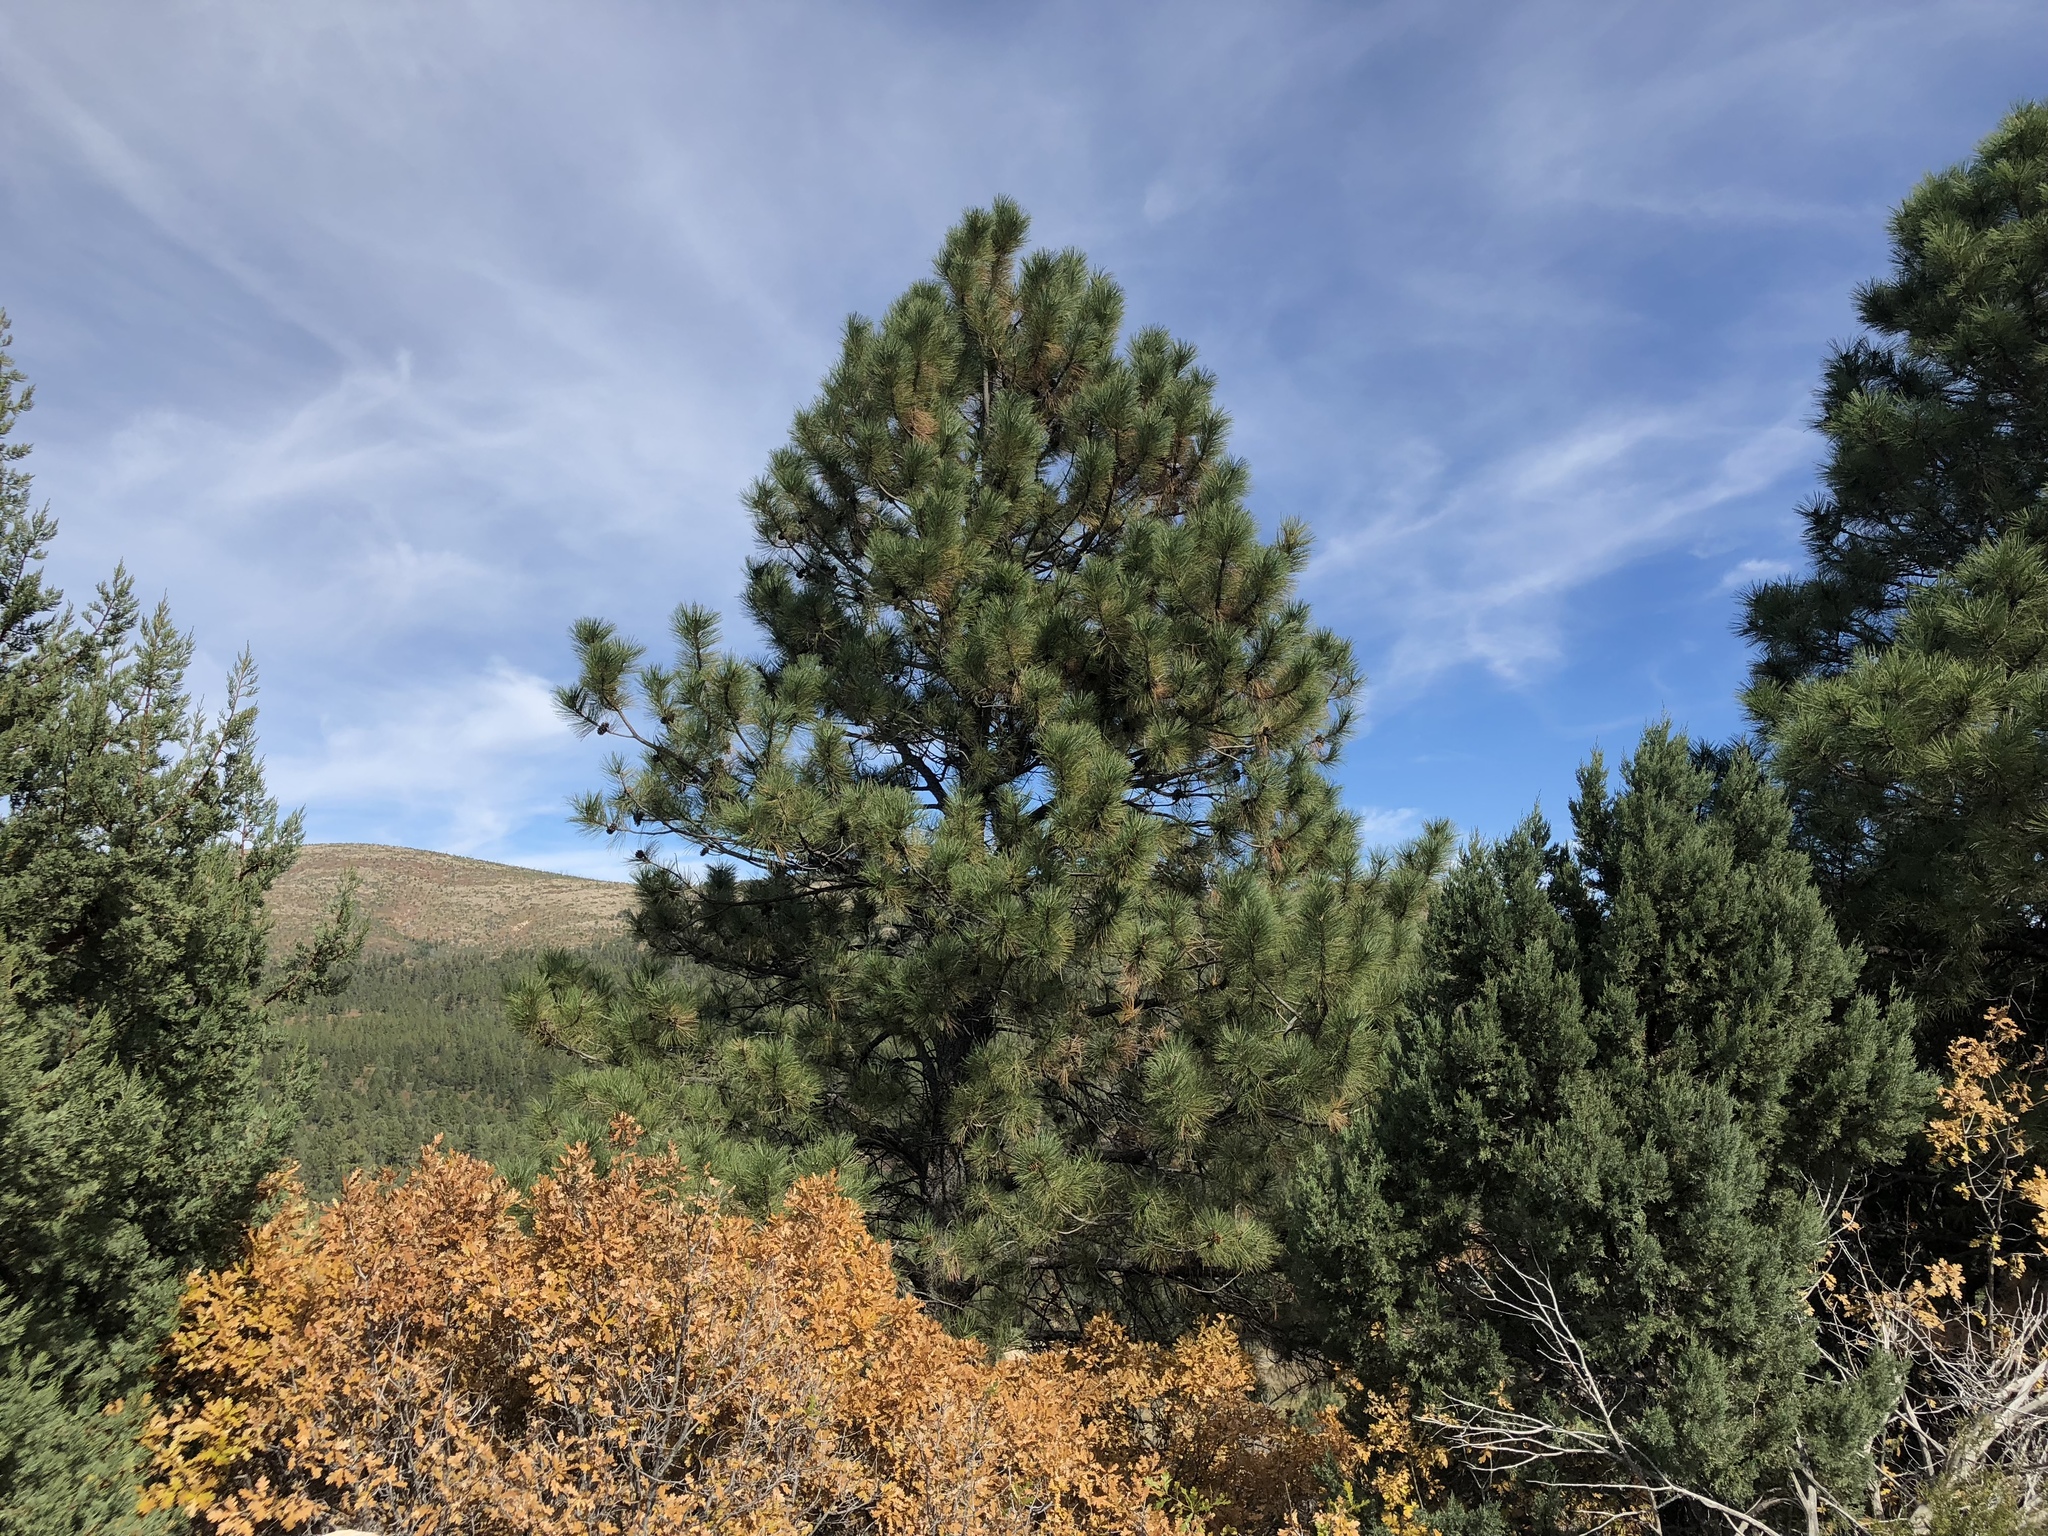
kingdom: Plantae
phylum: Tracheophyta
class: Pinopsida
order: Pinales
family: Pinaceae
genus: Pinus
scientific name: Pinus ponderosa
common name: Western yellow-pine
